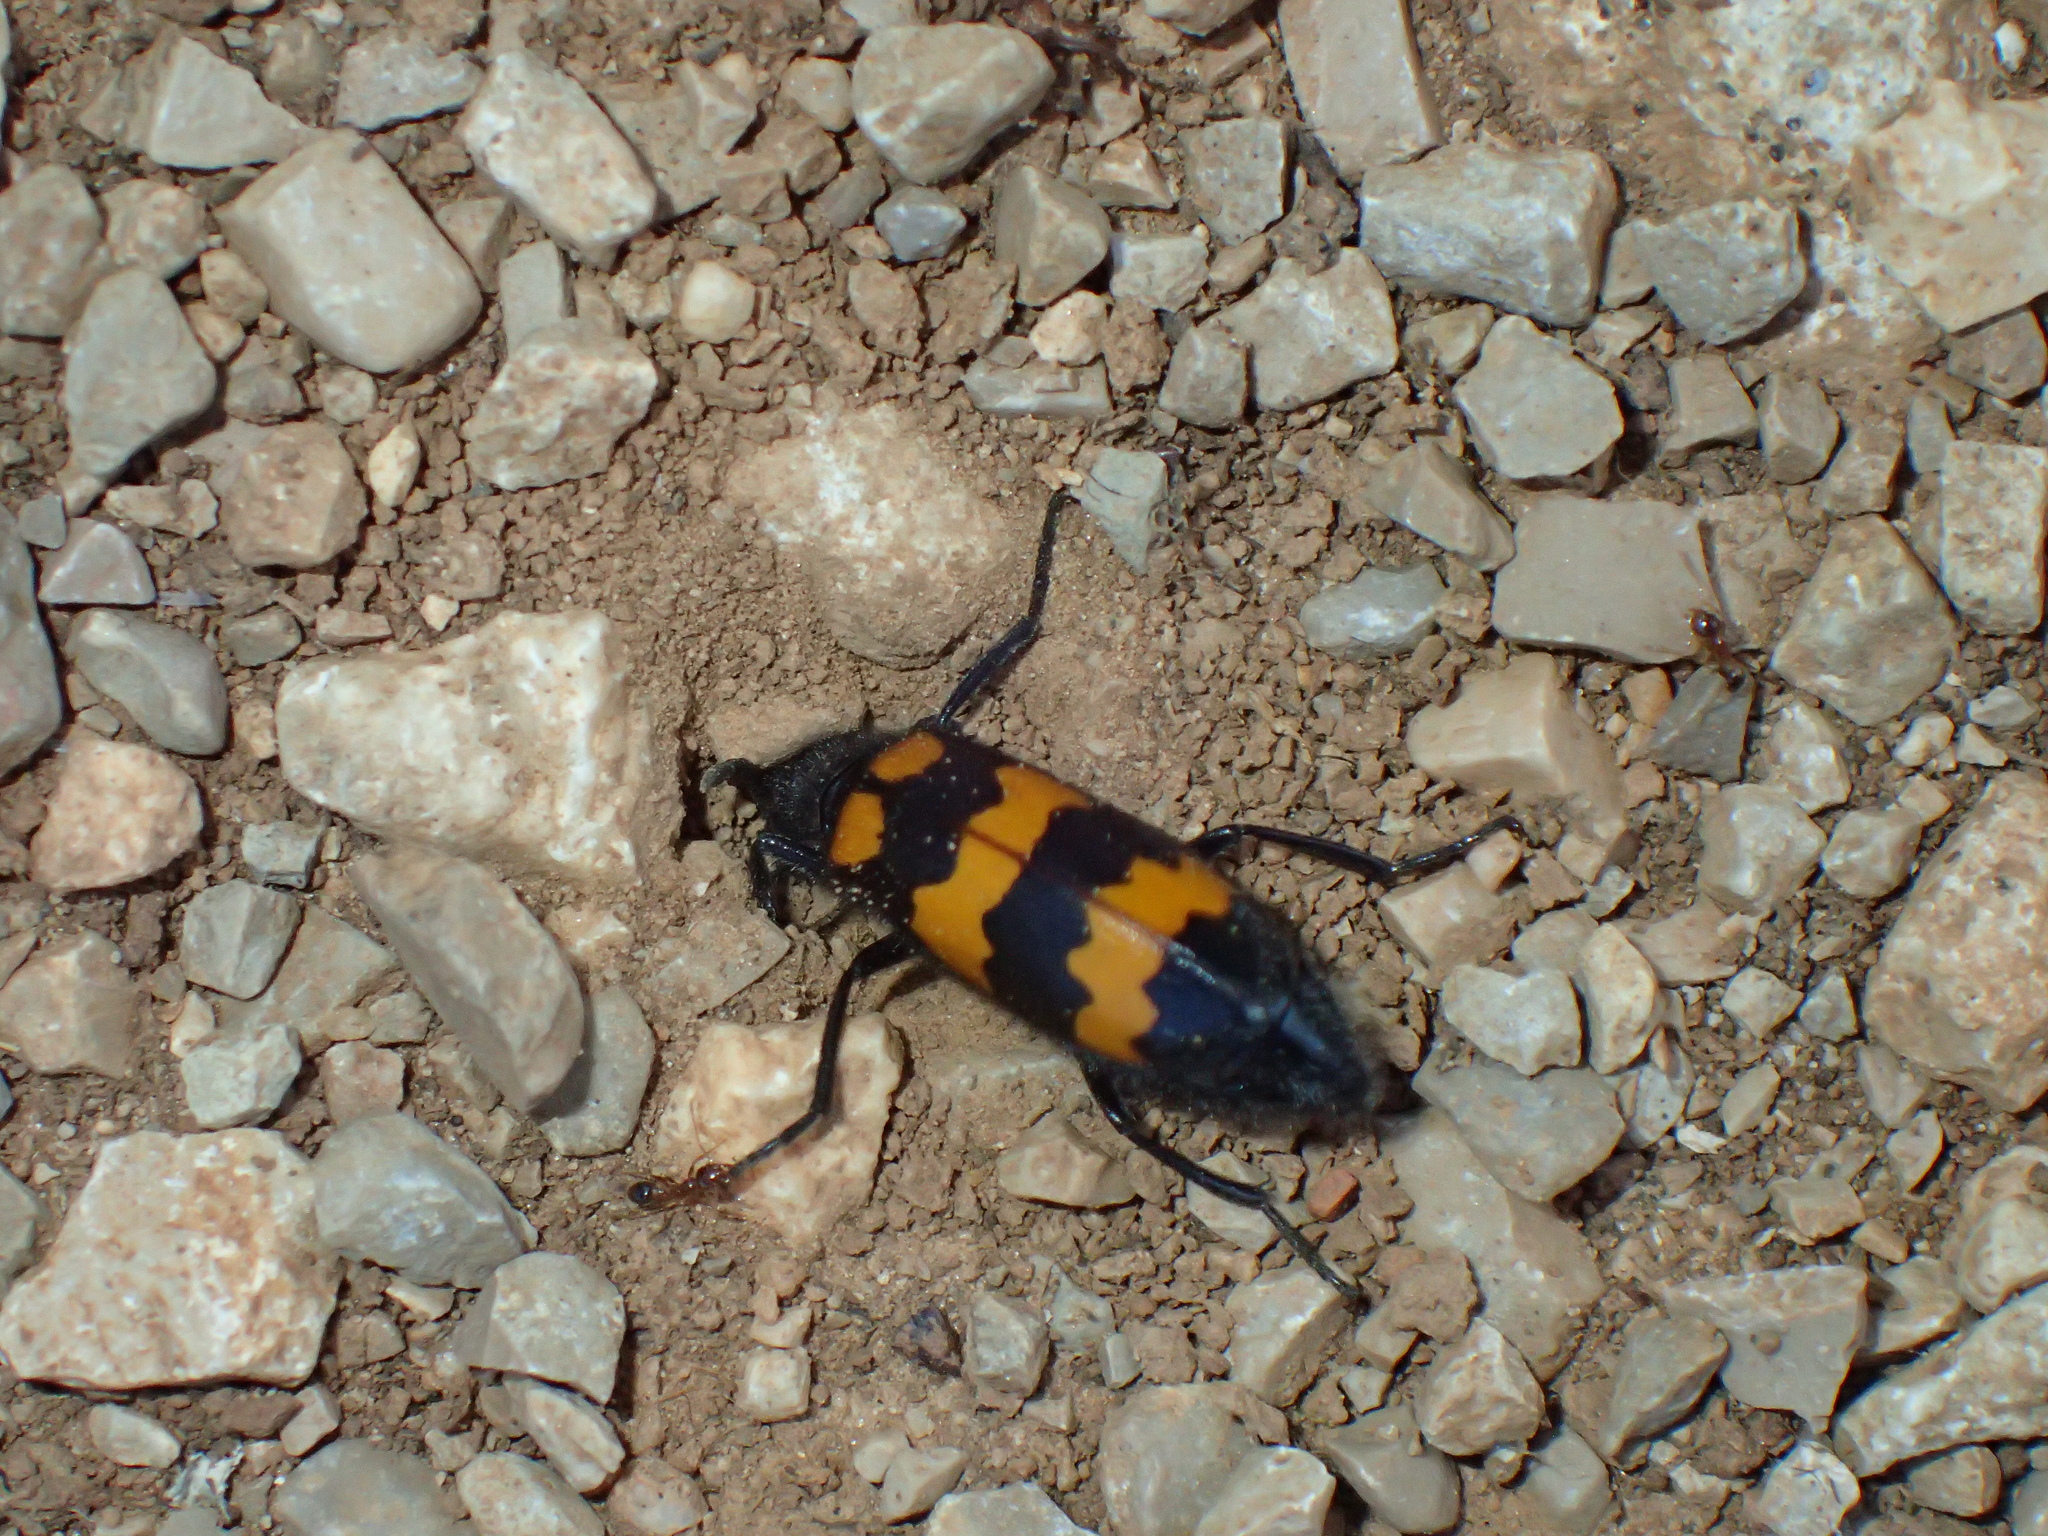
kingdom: Animalia
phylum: Arthropoda
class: Insecta
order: Coleoptera
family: Meloidae
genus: Mylabris
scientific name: Mylabris variabilis
